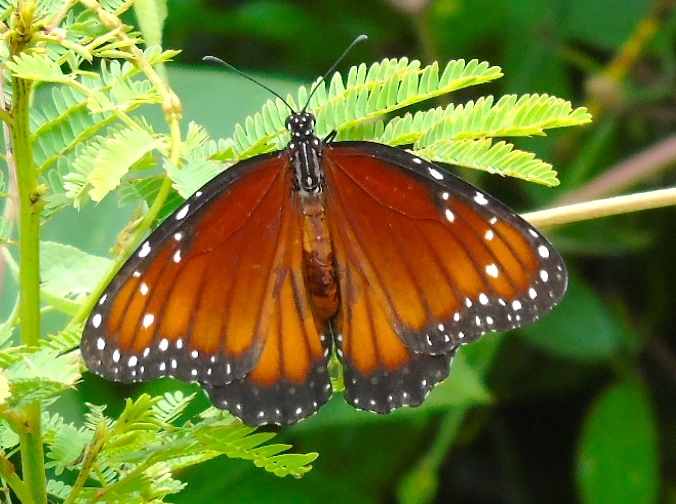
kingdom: Animalia
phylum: Arthropoda
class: Insecta
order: Lepidoptera
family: Nymphalidae
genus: Danaus
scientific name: Danaus eresimus
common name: Soldier
